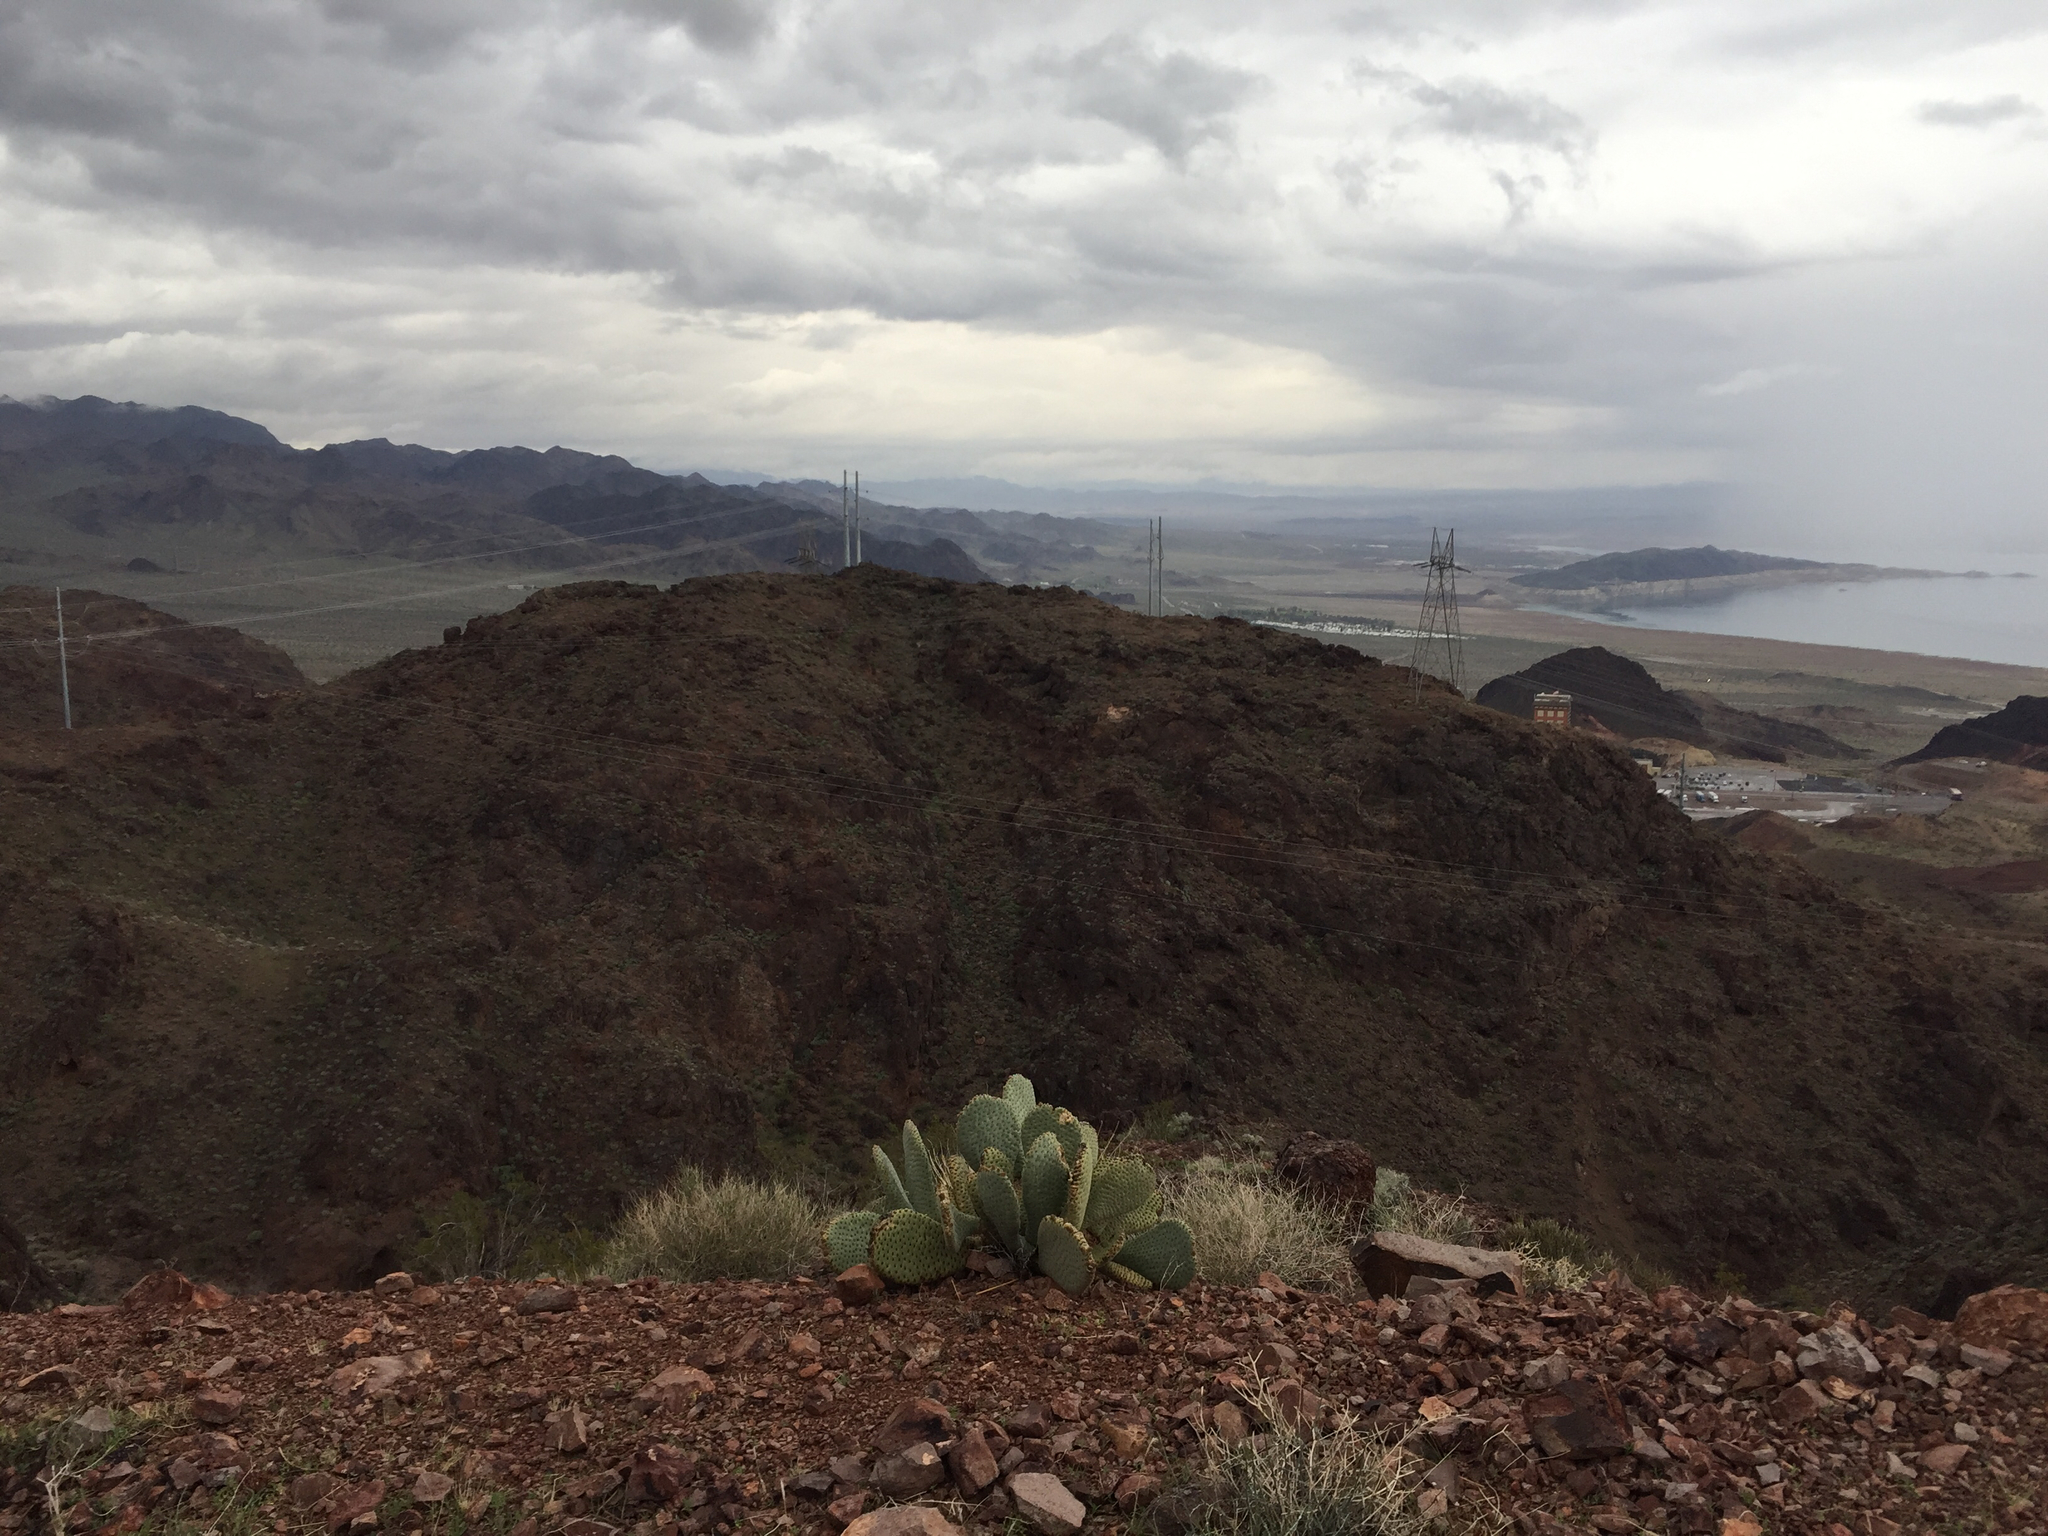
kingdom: Plantae
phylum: Tracheophyta
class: Magnoliopsida
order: Caryophyllales
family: Cactaceae
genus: Opuntia
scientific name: Opuntia basilaris
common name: Beavertail prickly-pear
